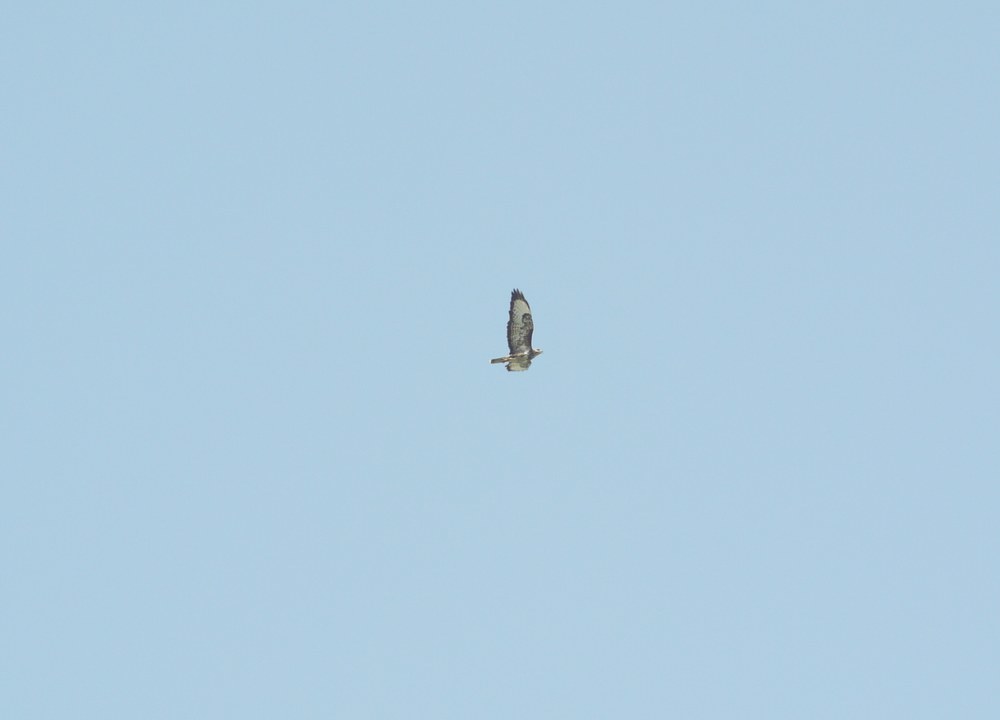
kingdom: Animalia
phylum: Chordata
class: Aves
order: Accipitriformes
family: Accipitridae
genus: Buteo
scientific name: Buteo buteo
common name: Common buzzard
